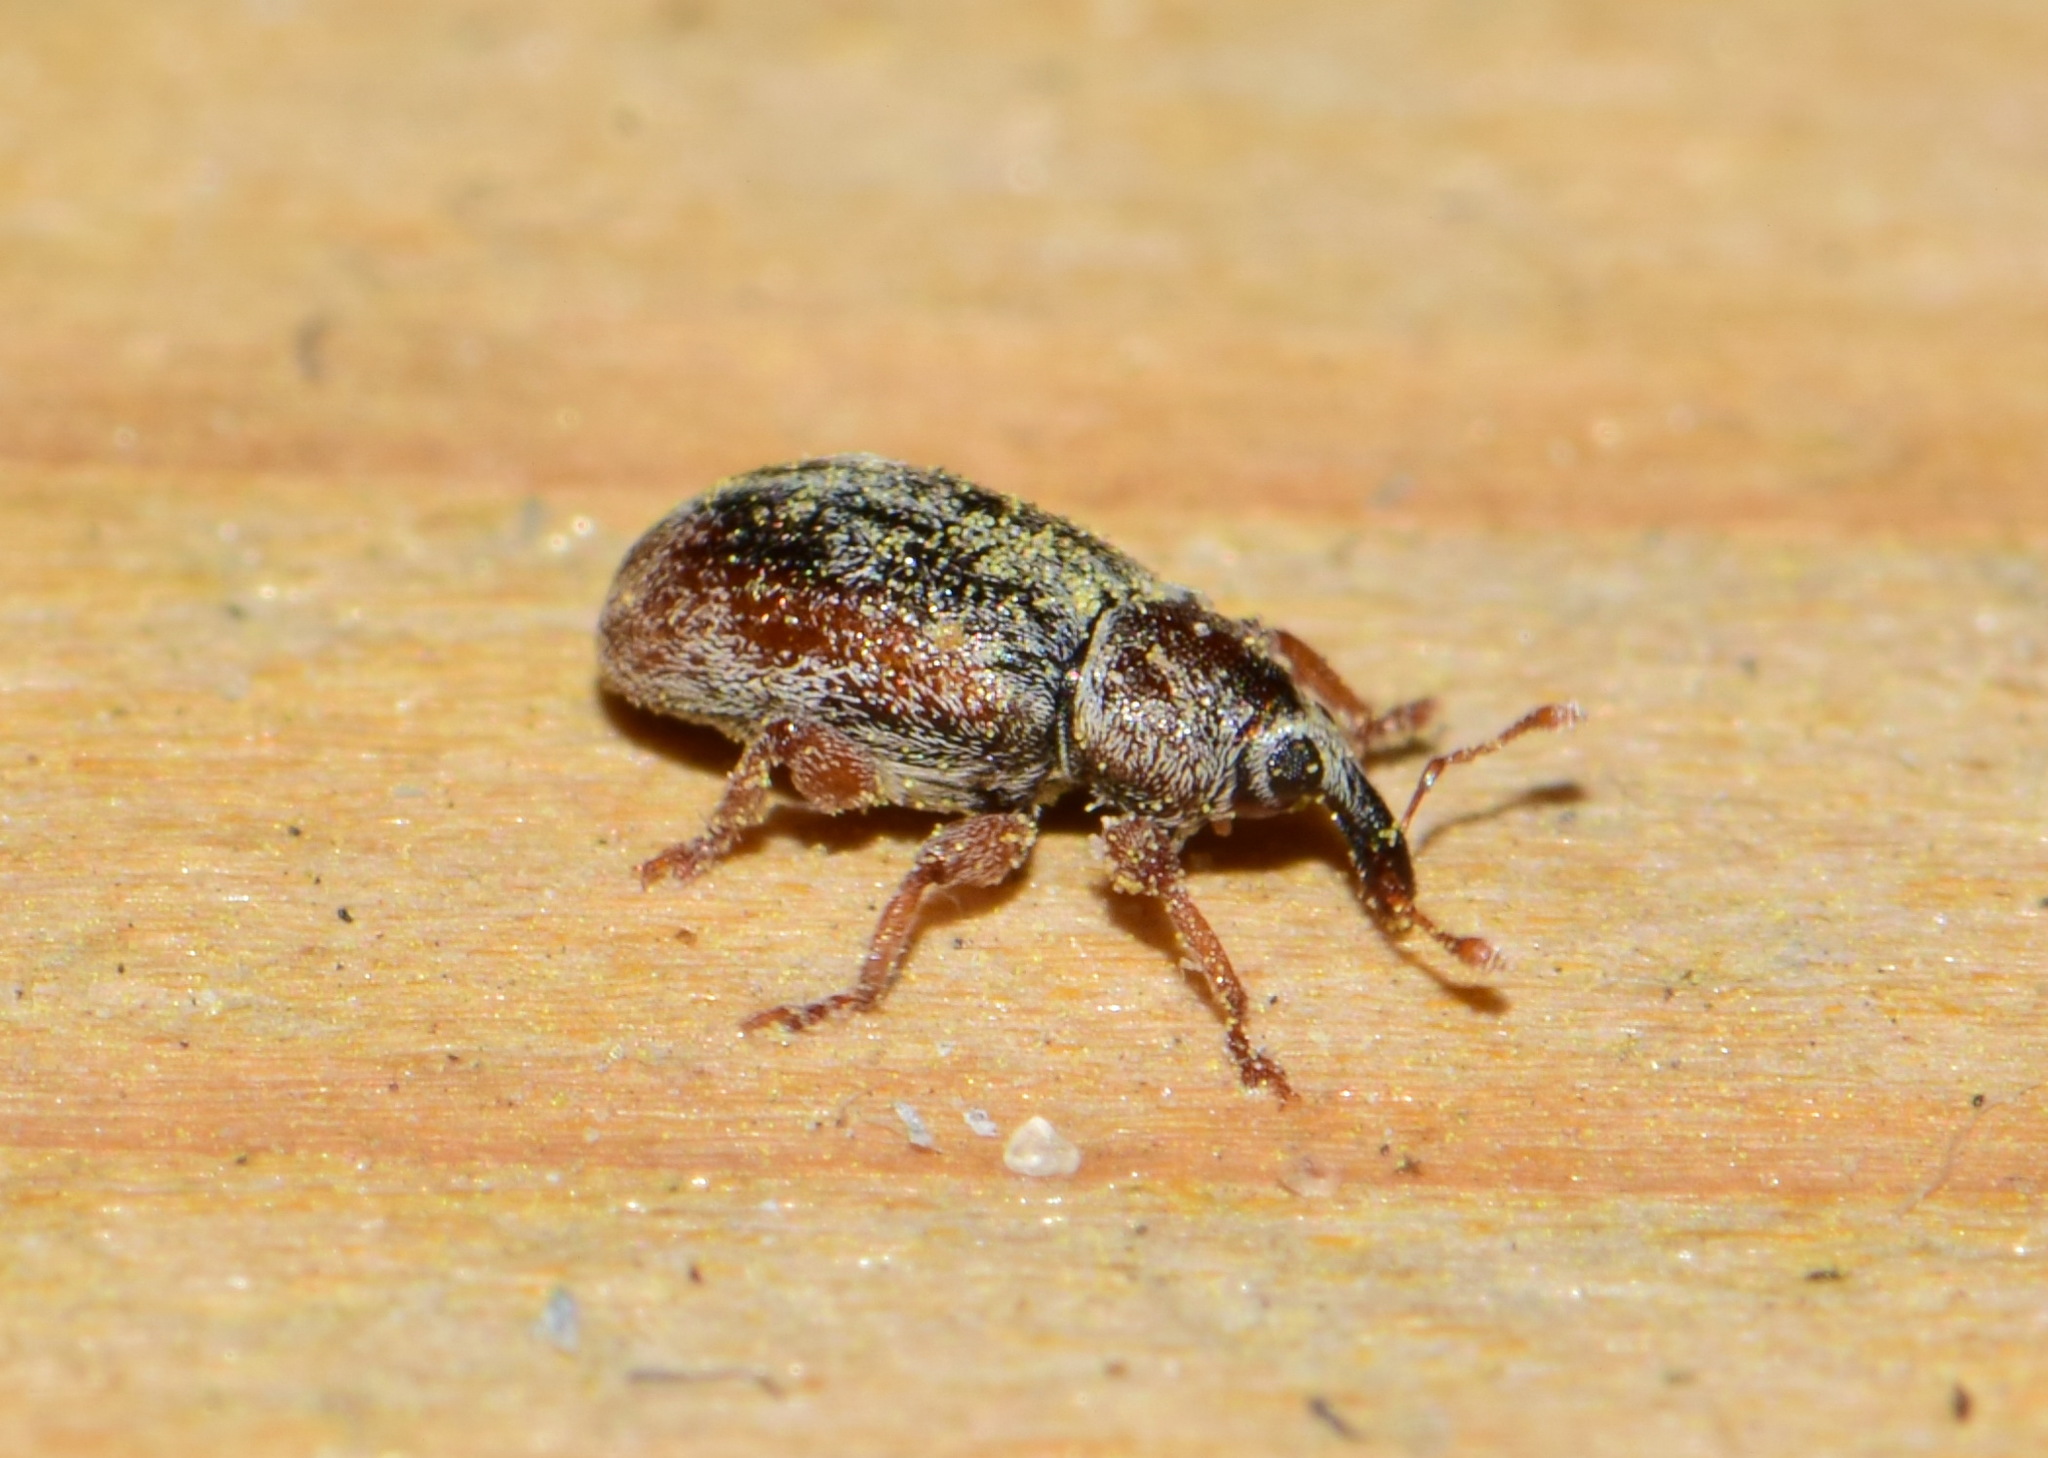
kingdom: Animalia
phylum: Arthropoda
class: Insecta
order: Coleoptera
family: Curculionidae
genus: Ellescus
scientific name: Ellescus scanicus
